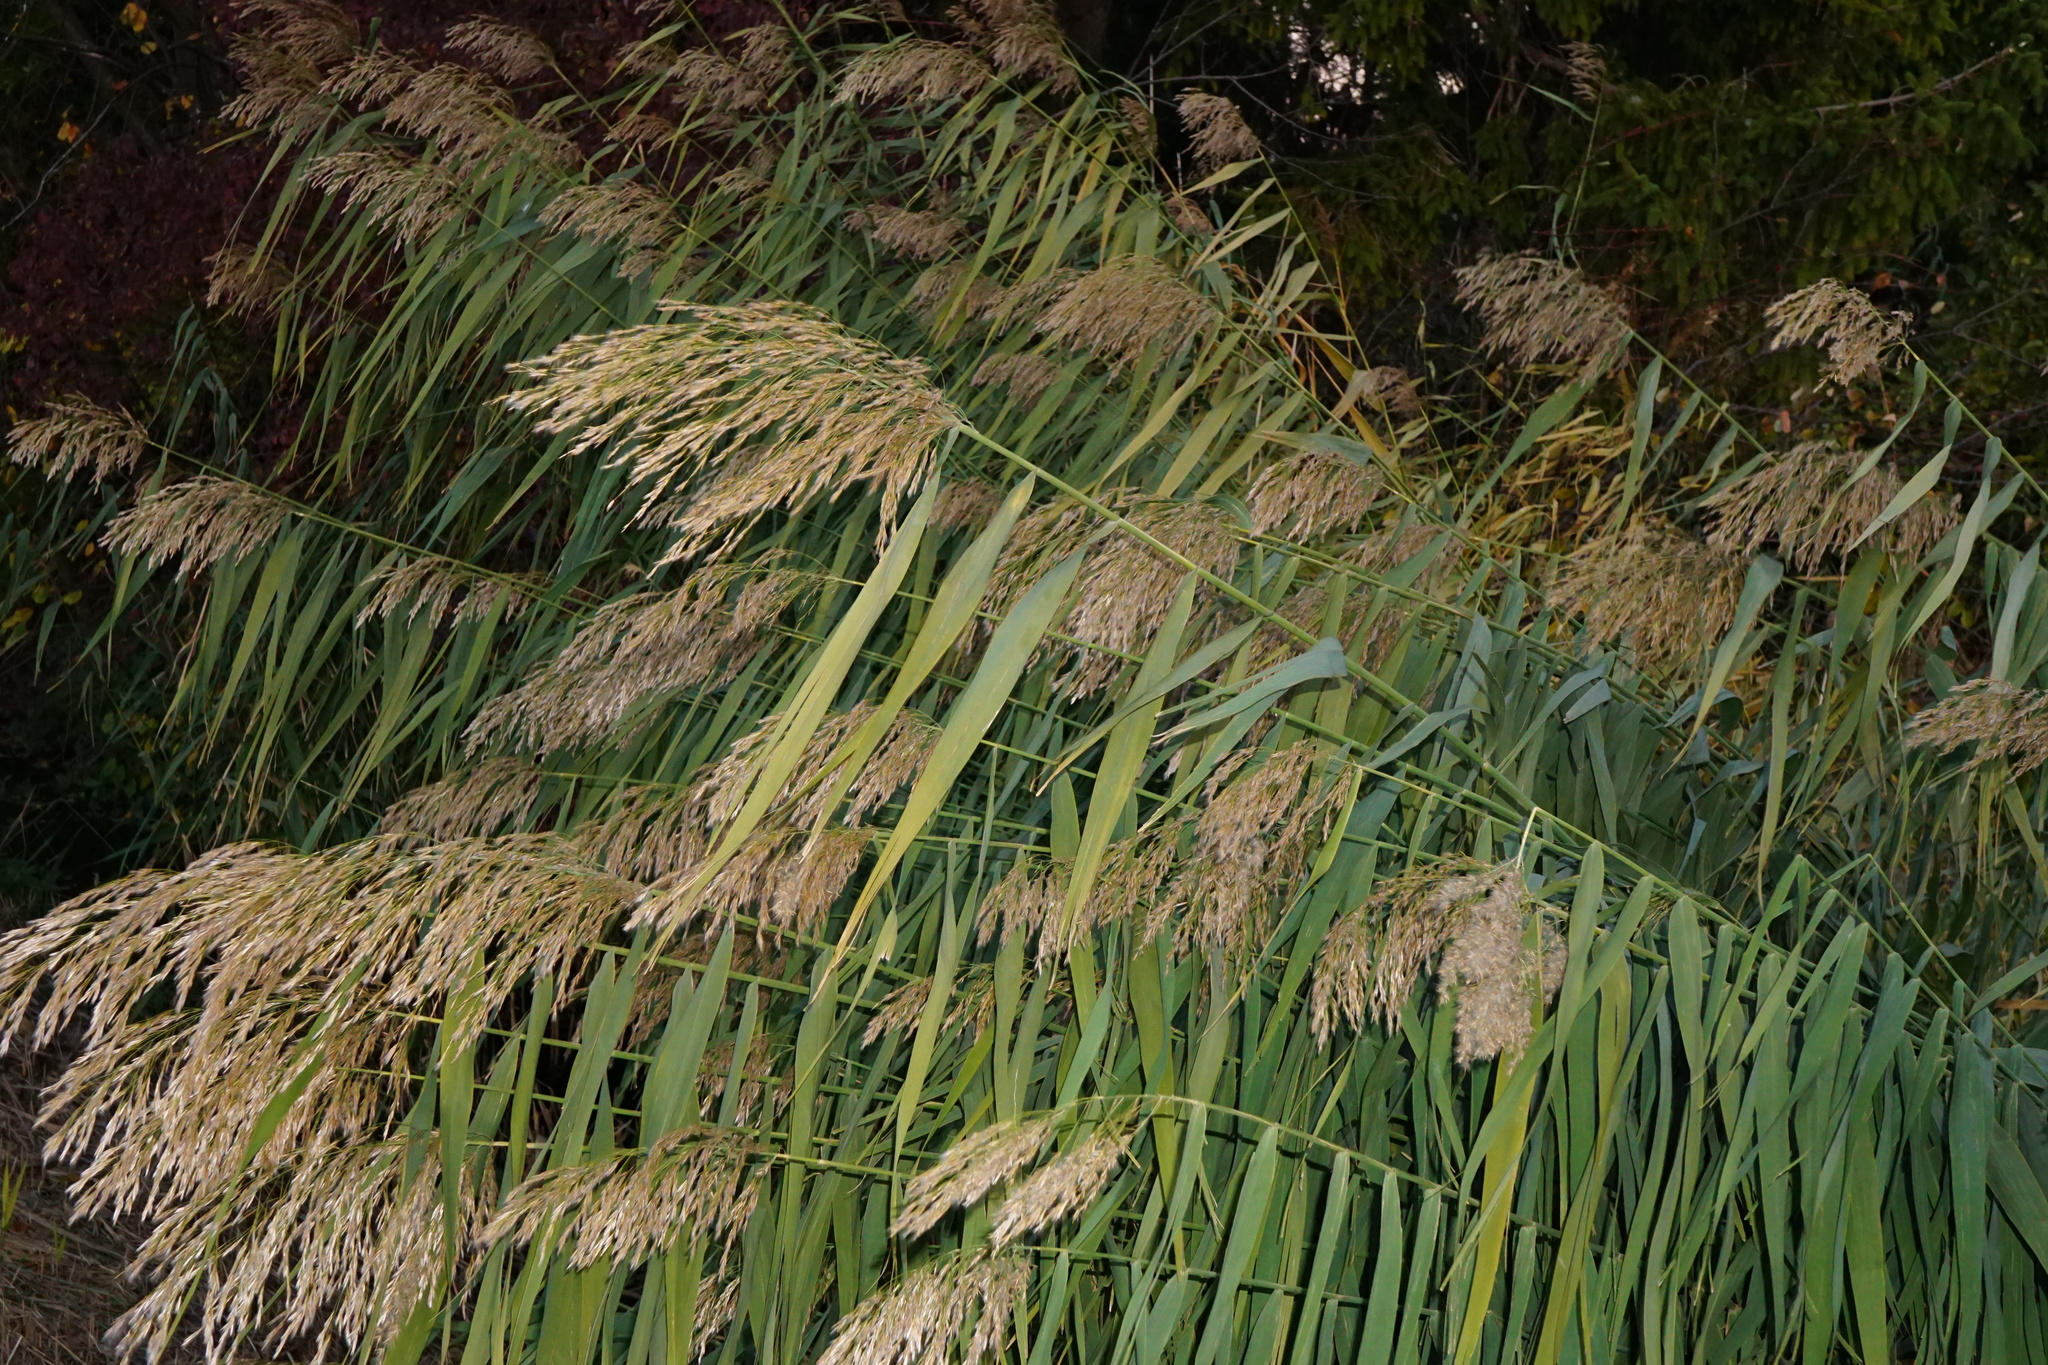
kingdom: Plantae
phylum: Tracheophyta
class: Liliopsida
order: Poales
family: Poaceae
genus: Phragmites
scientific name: Phragmites australis
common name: Common reed
